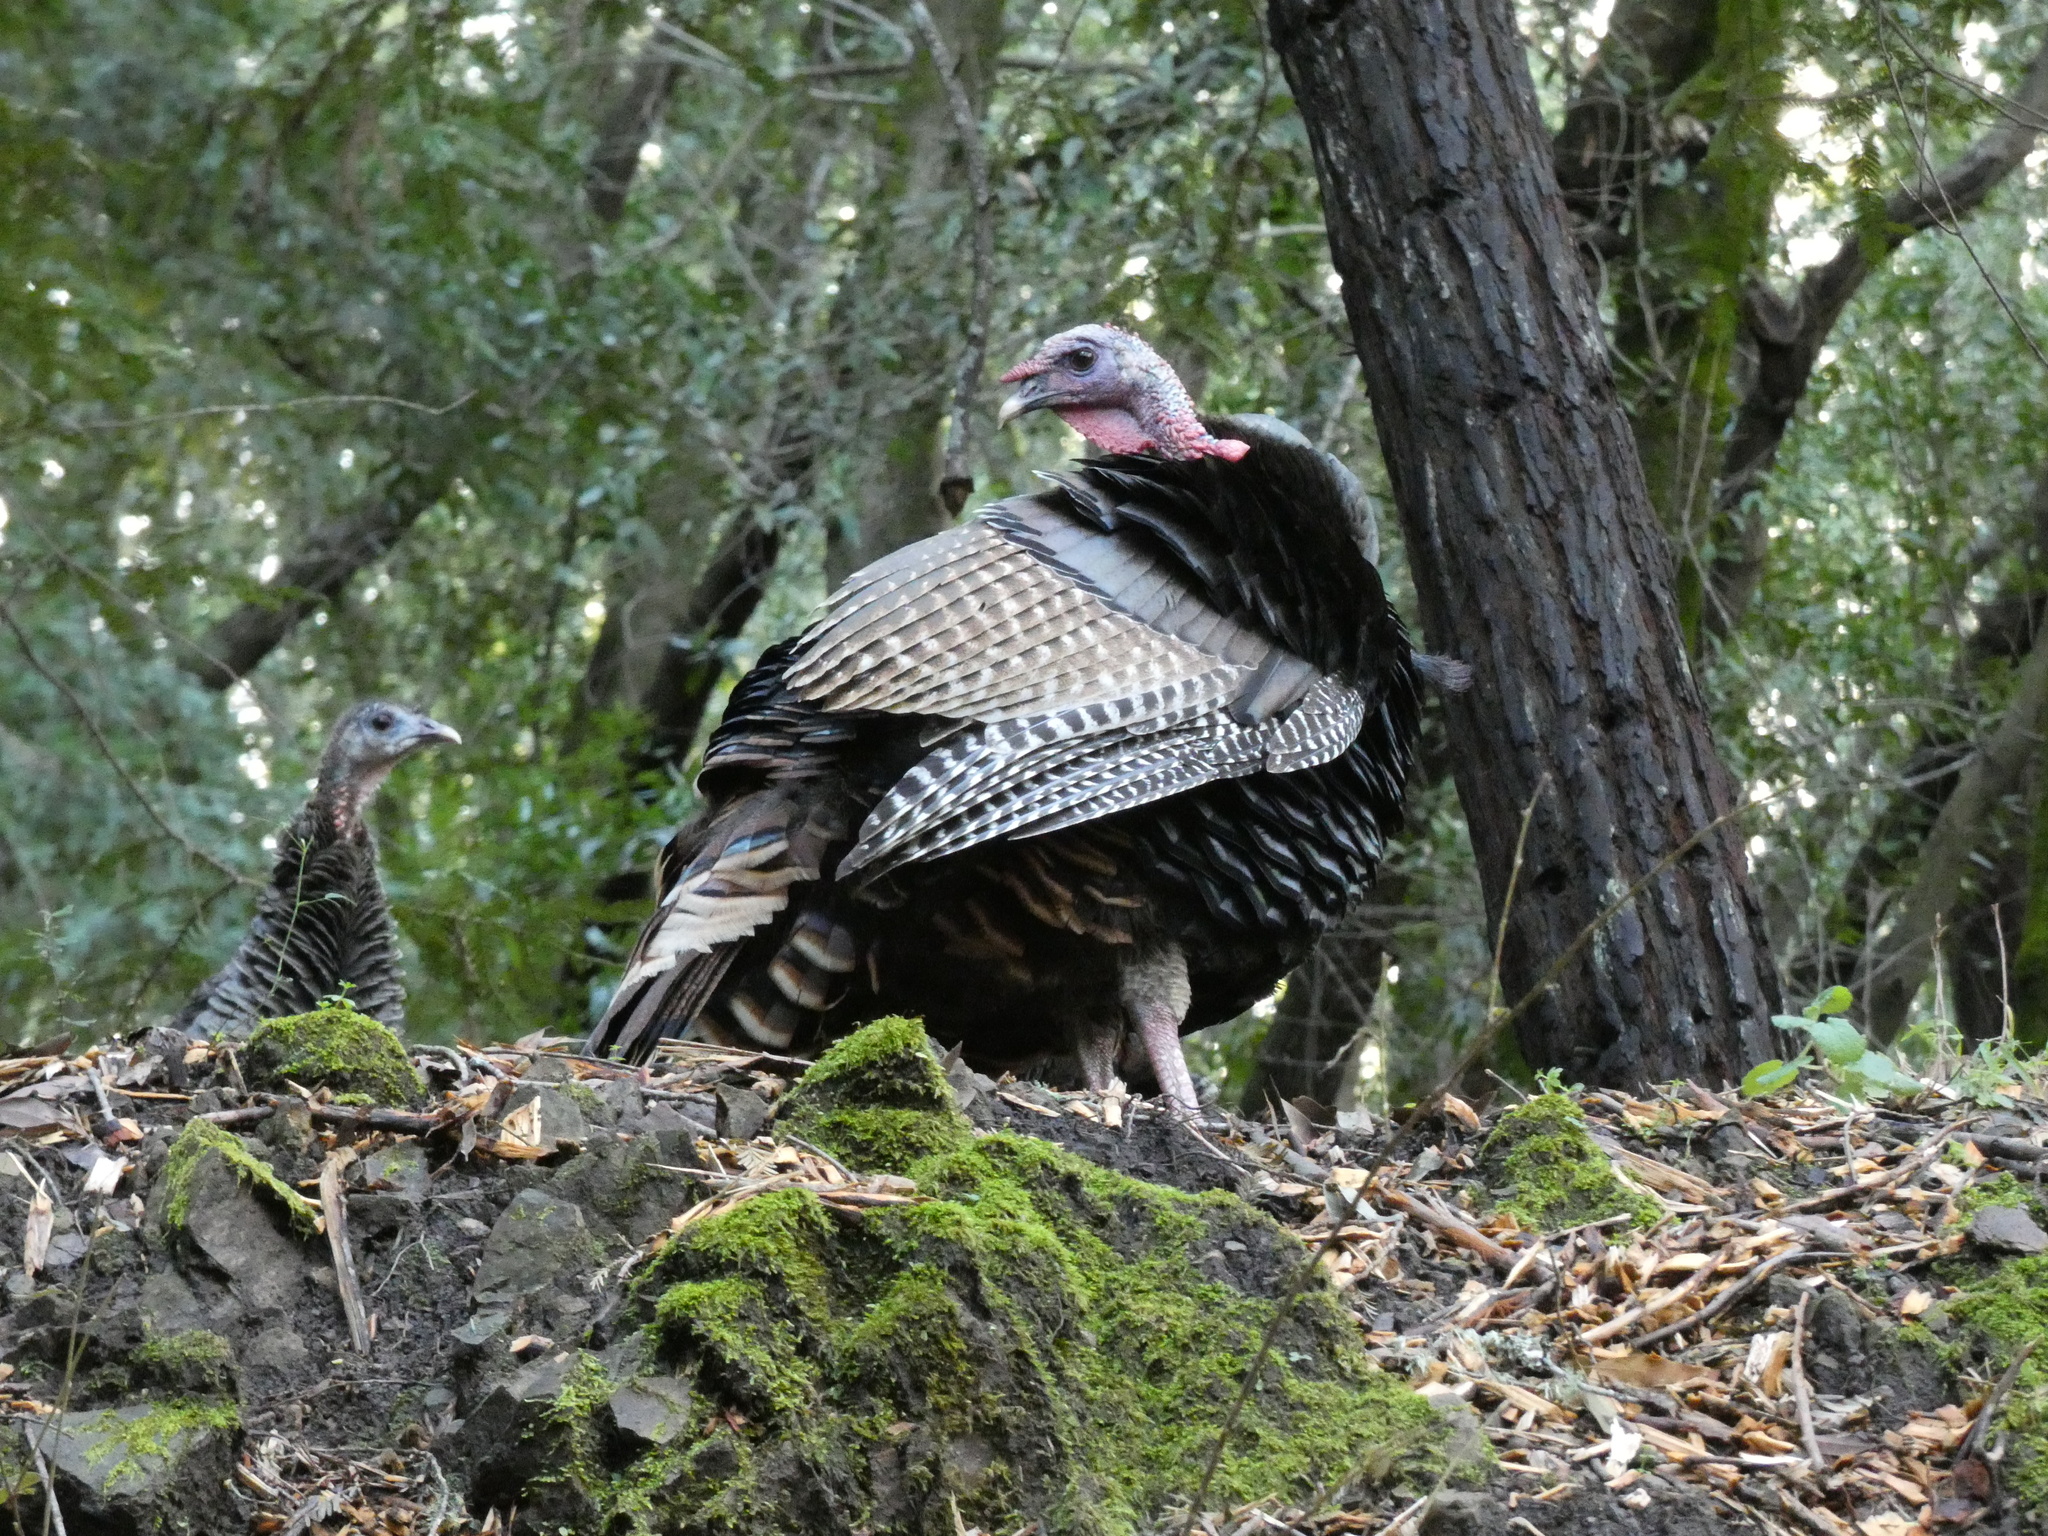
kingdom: Animalia
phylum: Chordata
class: Aves
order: Galliformes
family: Phasianidae
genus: Meleagris
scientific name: Meleagris gallopavo
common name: Wild turkey
